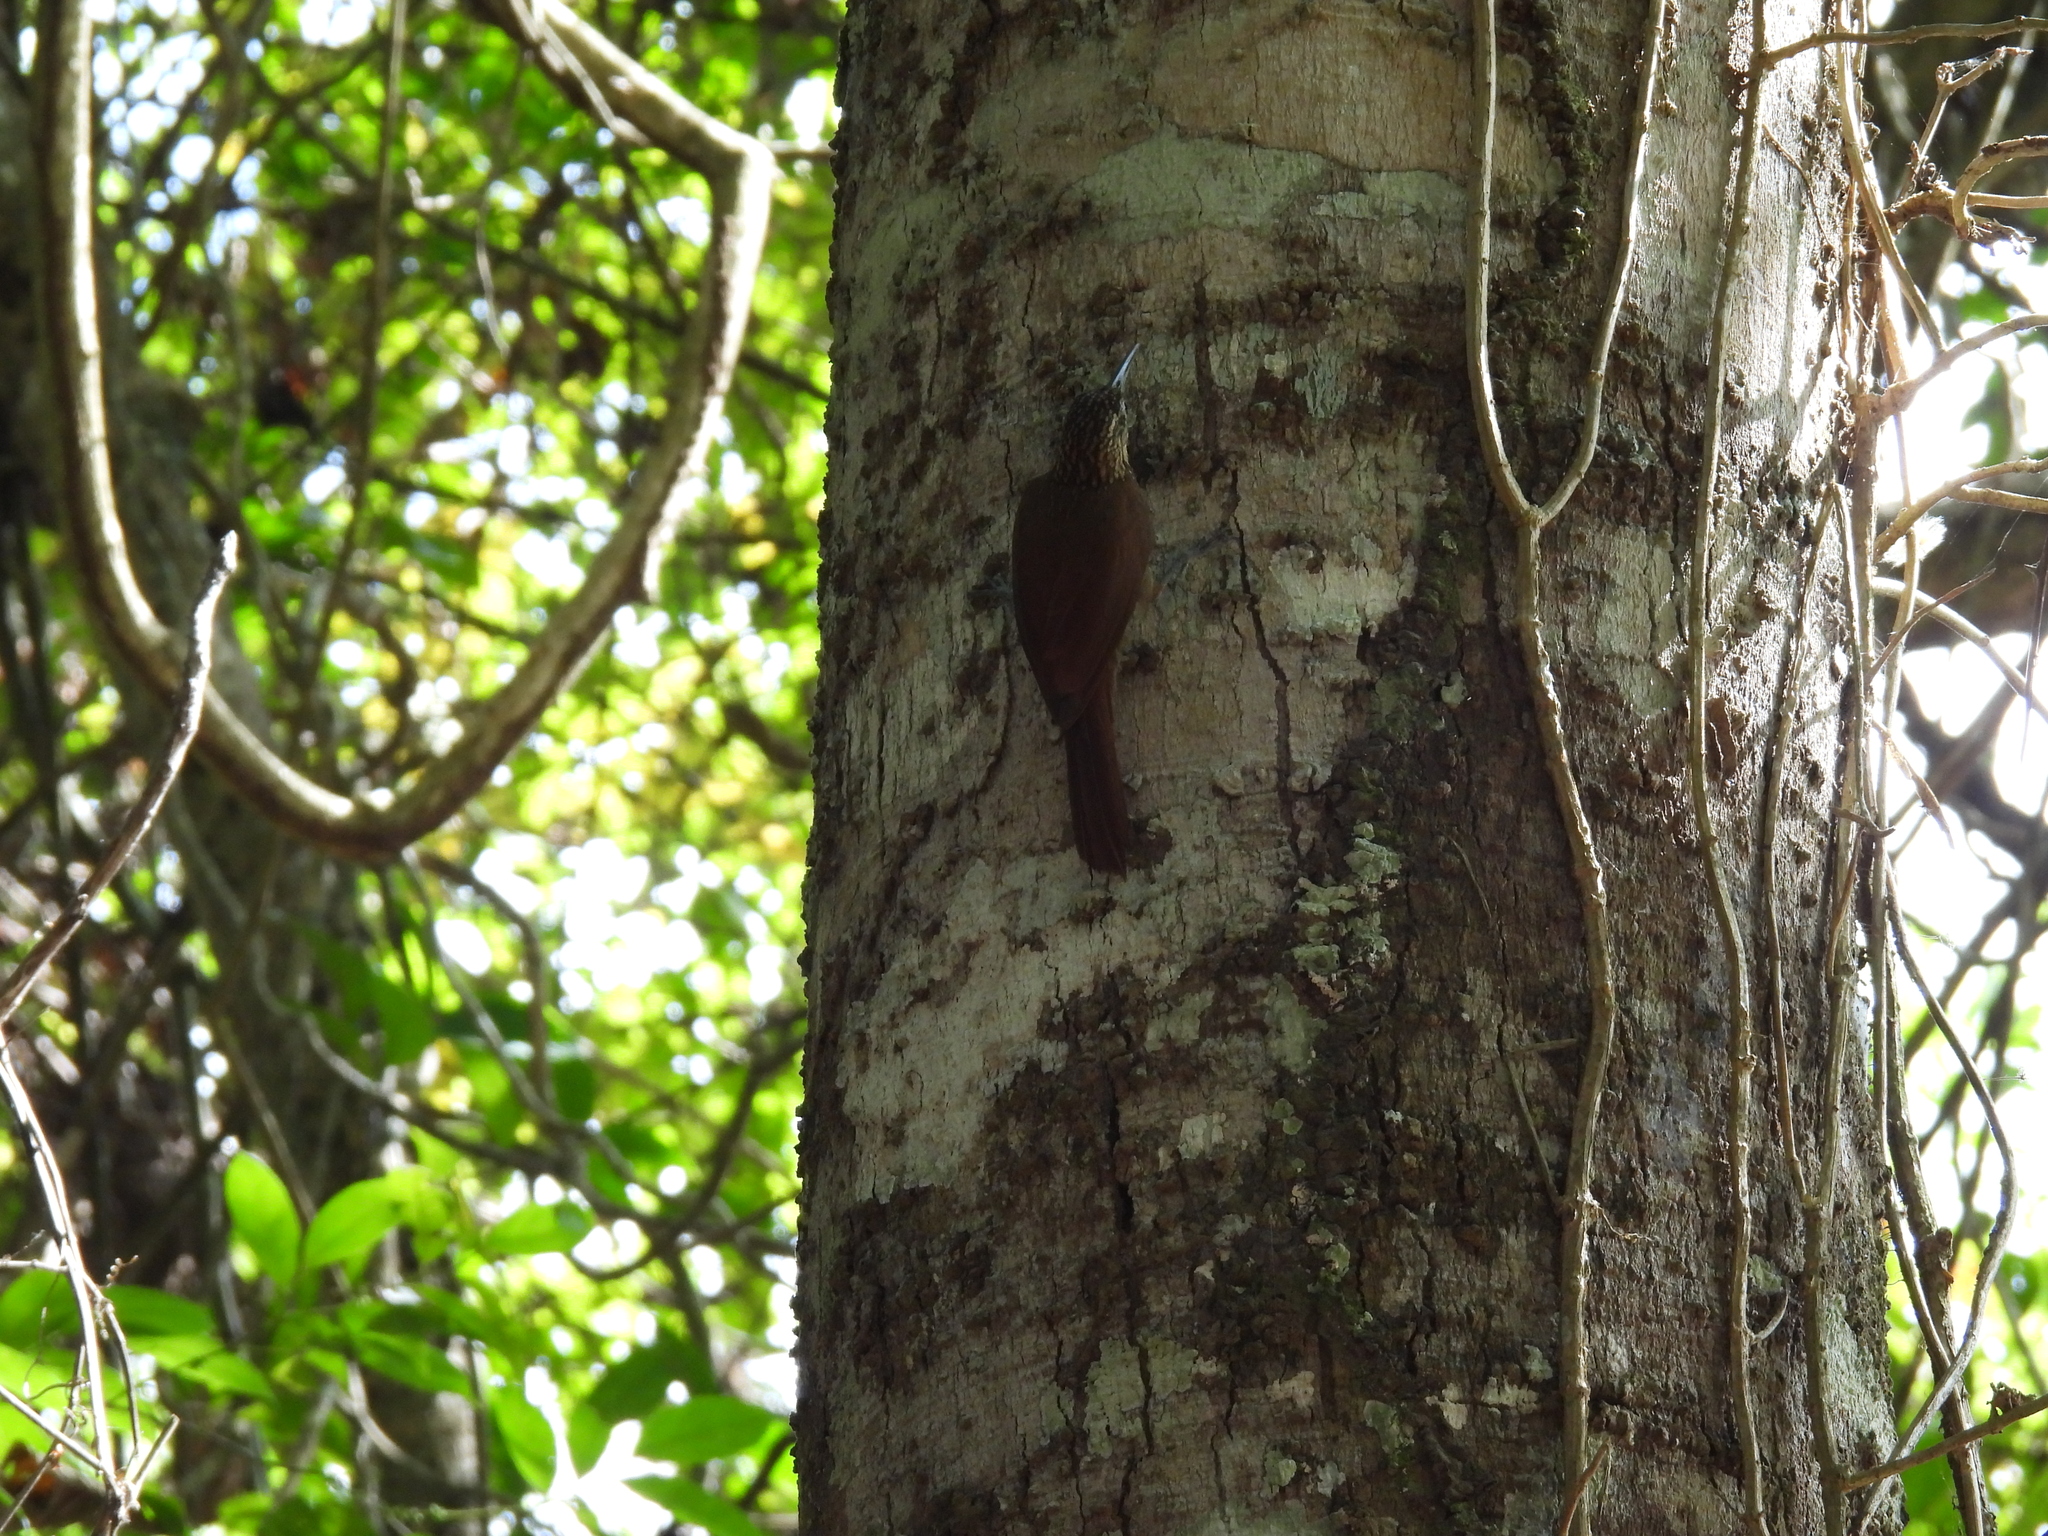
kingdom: Animalia
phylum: Chordata
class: Squamata
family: Sphaerodactylidae
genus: Gonatodes
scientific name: Gonatodes albogularis
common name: Yellow-headed gecko
